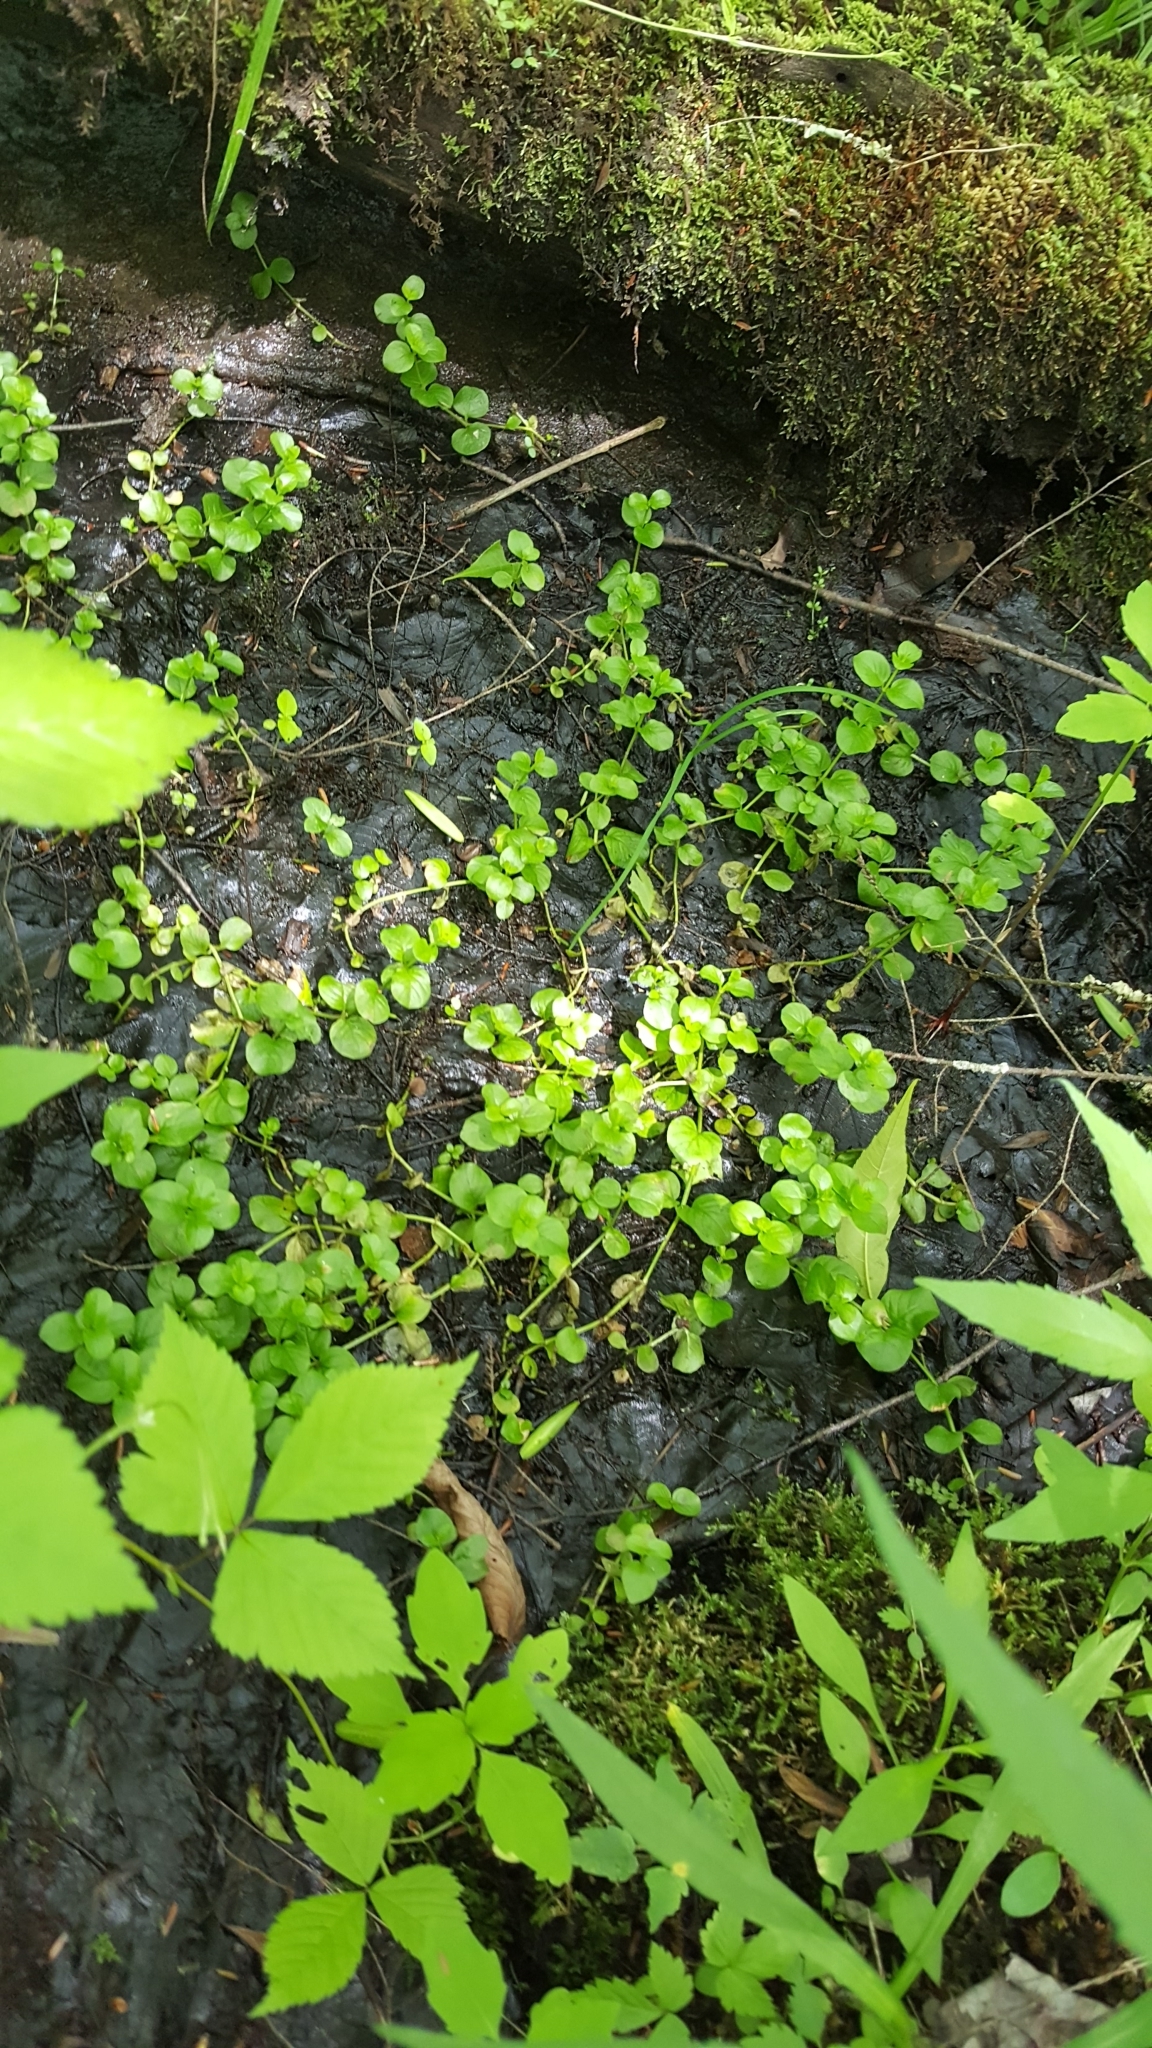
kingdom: Plantae
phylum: Tracheophyta
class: Magnoliopsida
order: Ericales
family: Primulaceae
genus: Lysimachia
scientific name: Lysimachia nummularia
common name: Moneywort
